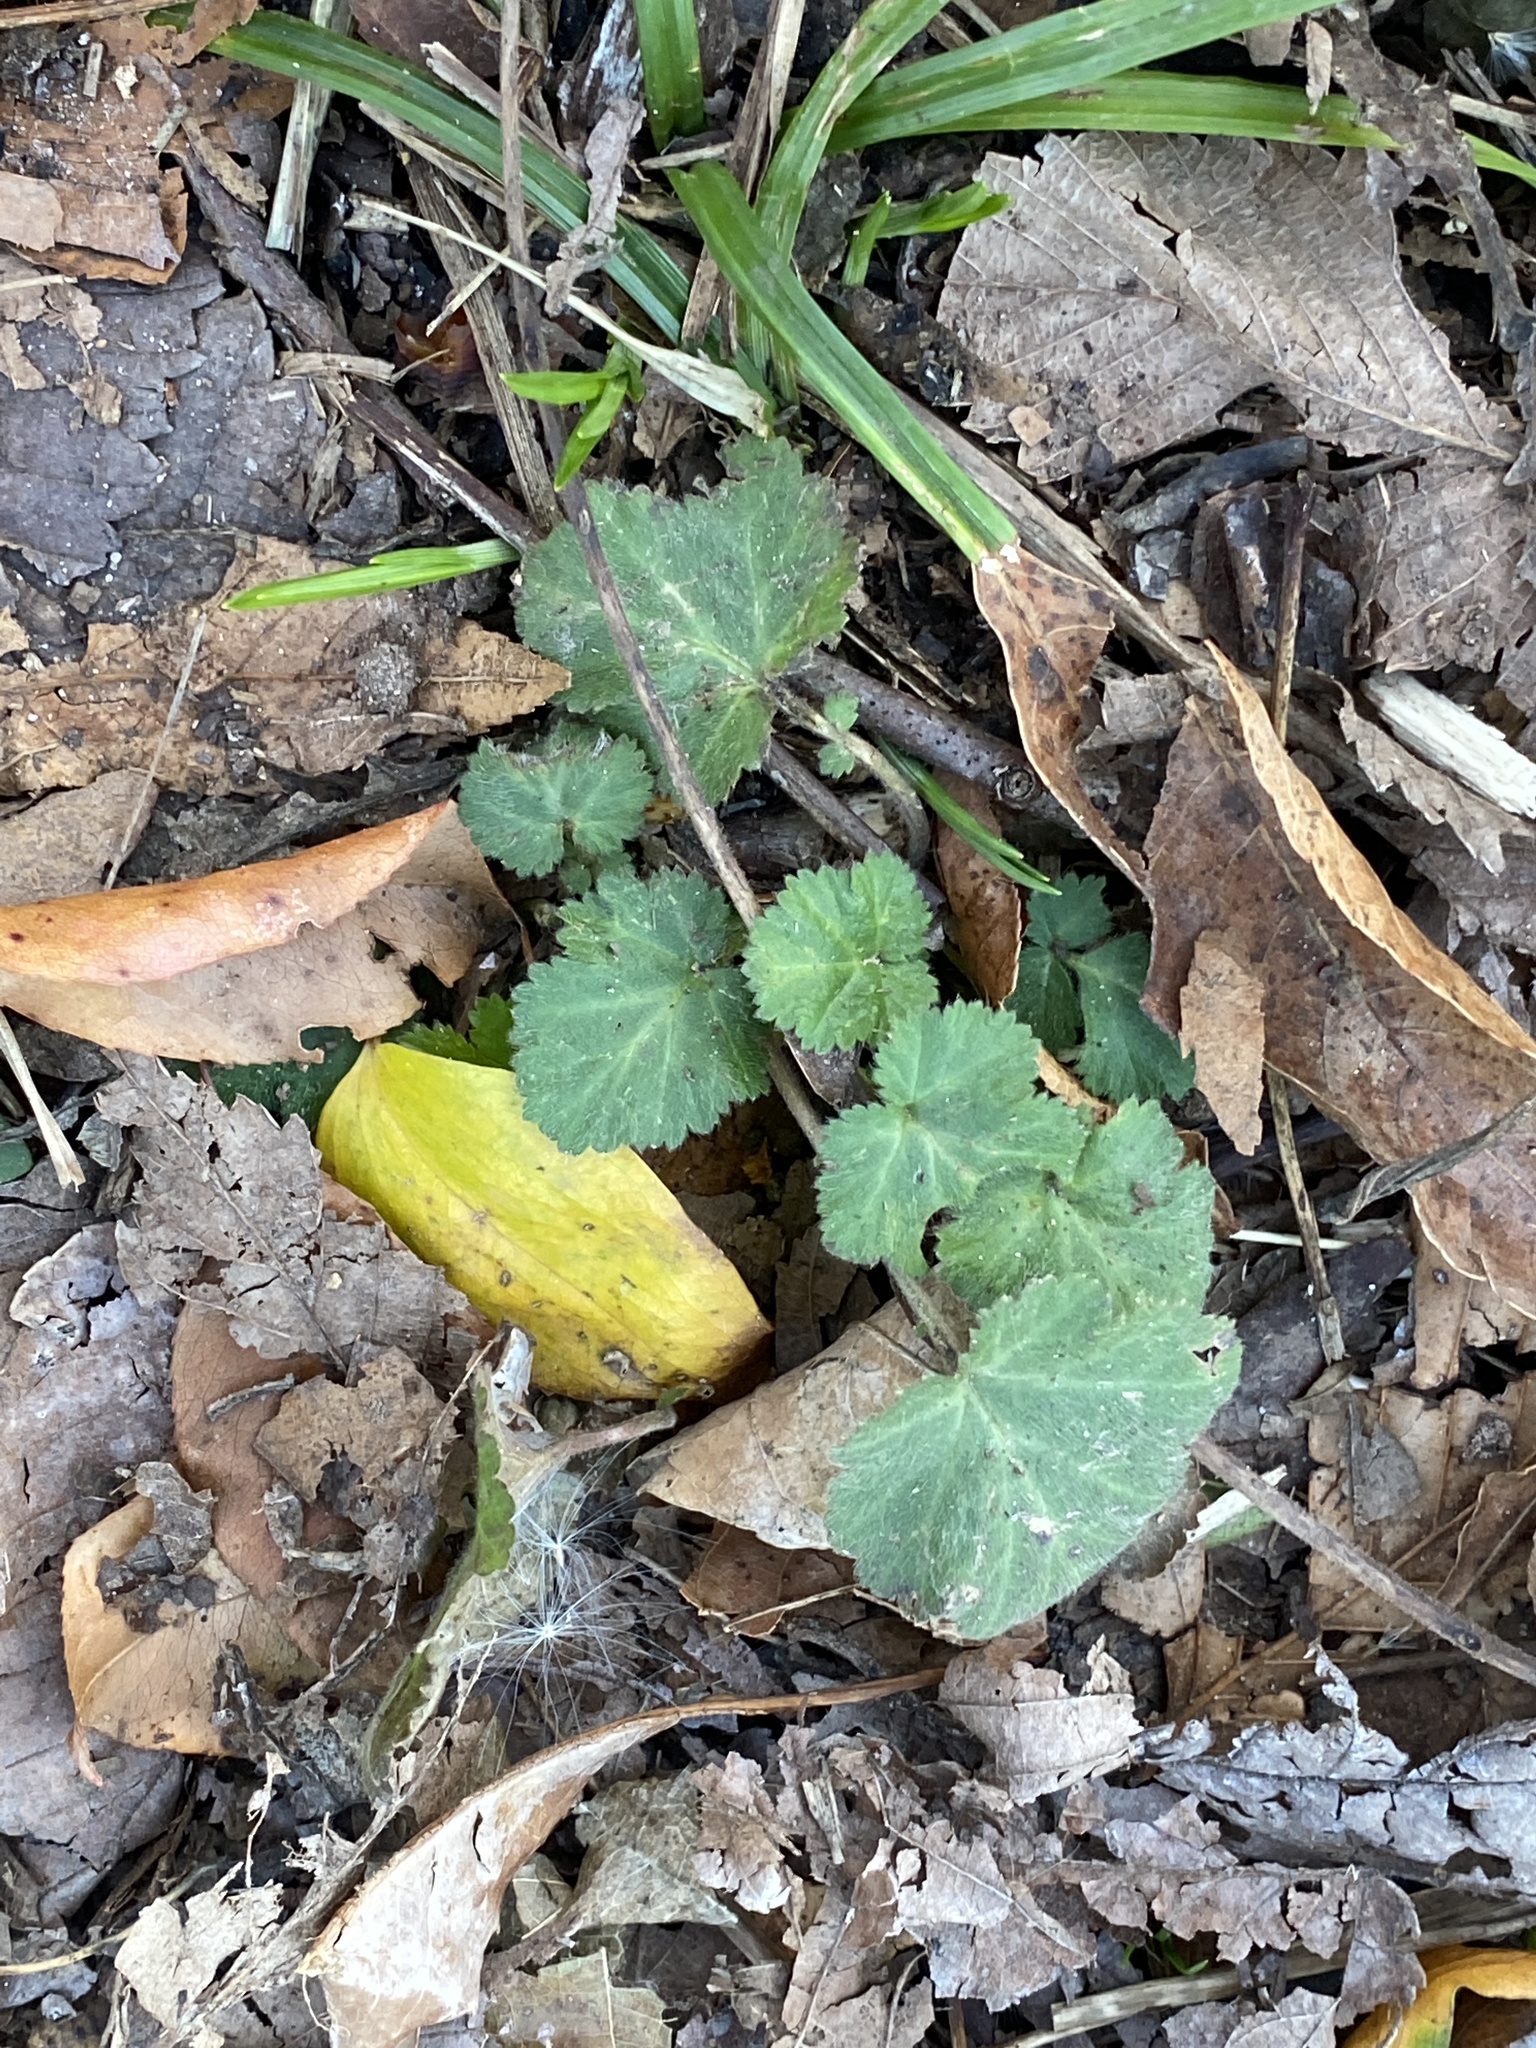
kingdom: Plantae
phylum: Tracheophyta
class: Magnoliopsida
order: Rosales
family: Rosaceae
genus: Geum
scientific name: Geum canadense
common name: White avens
